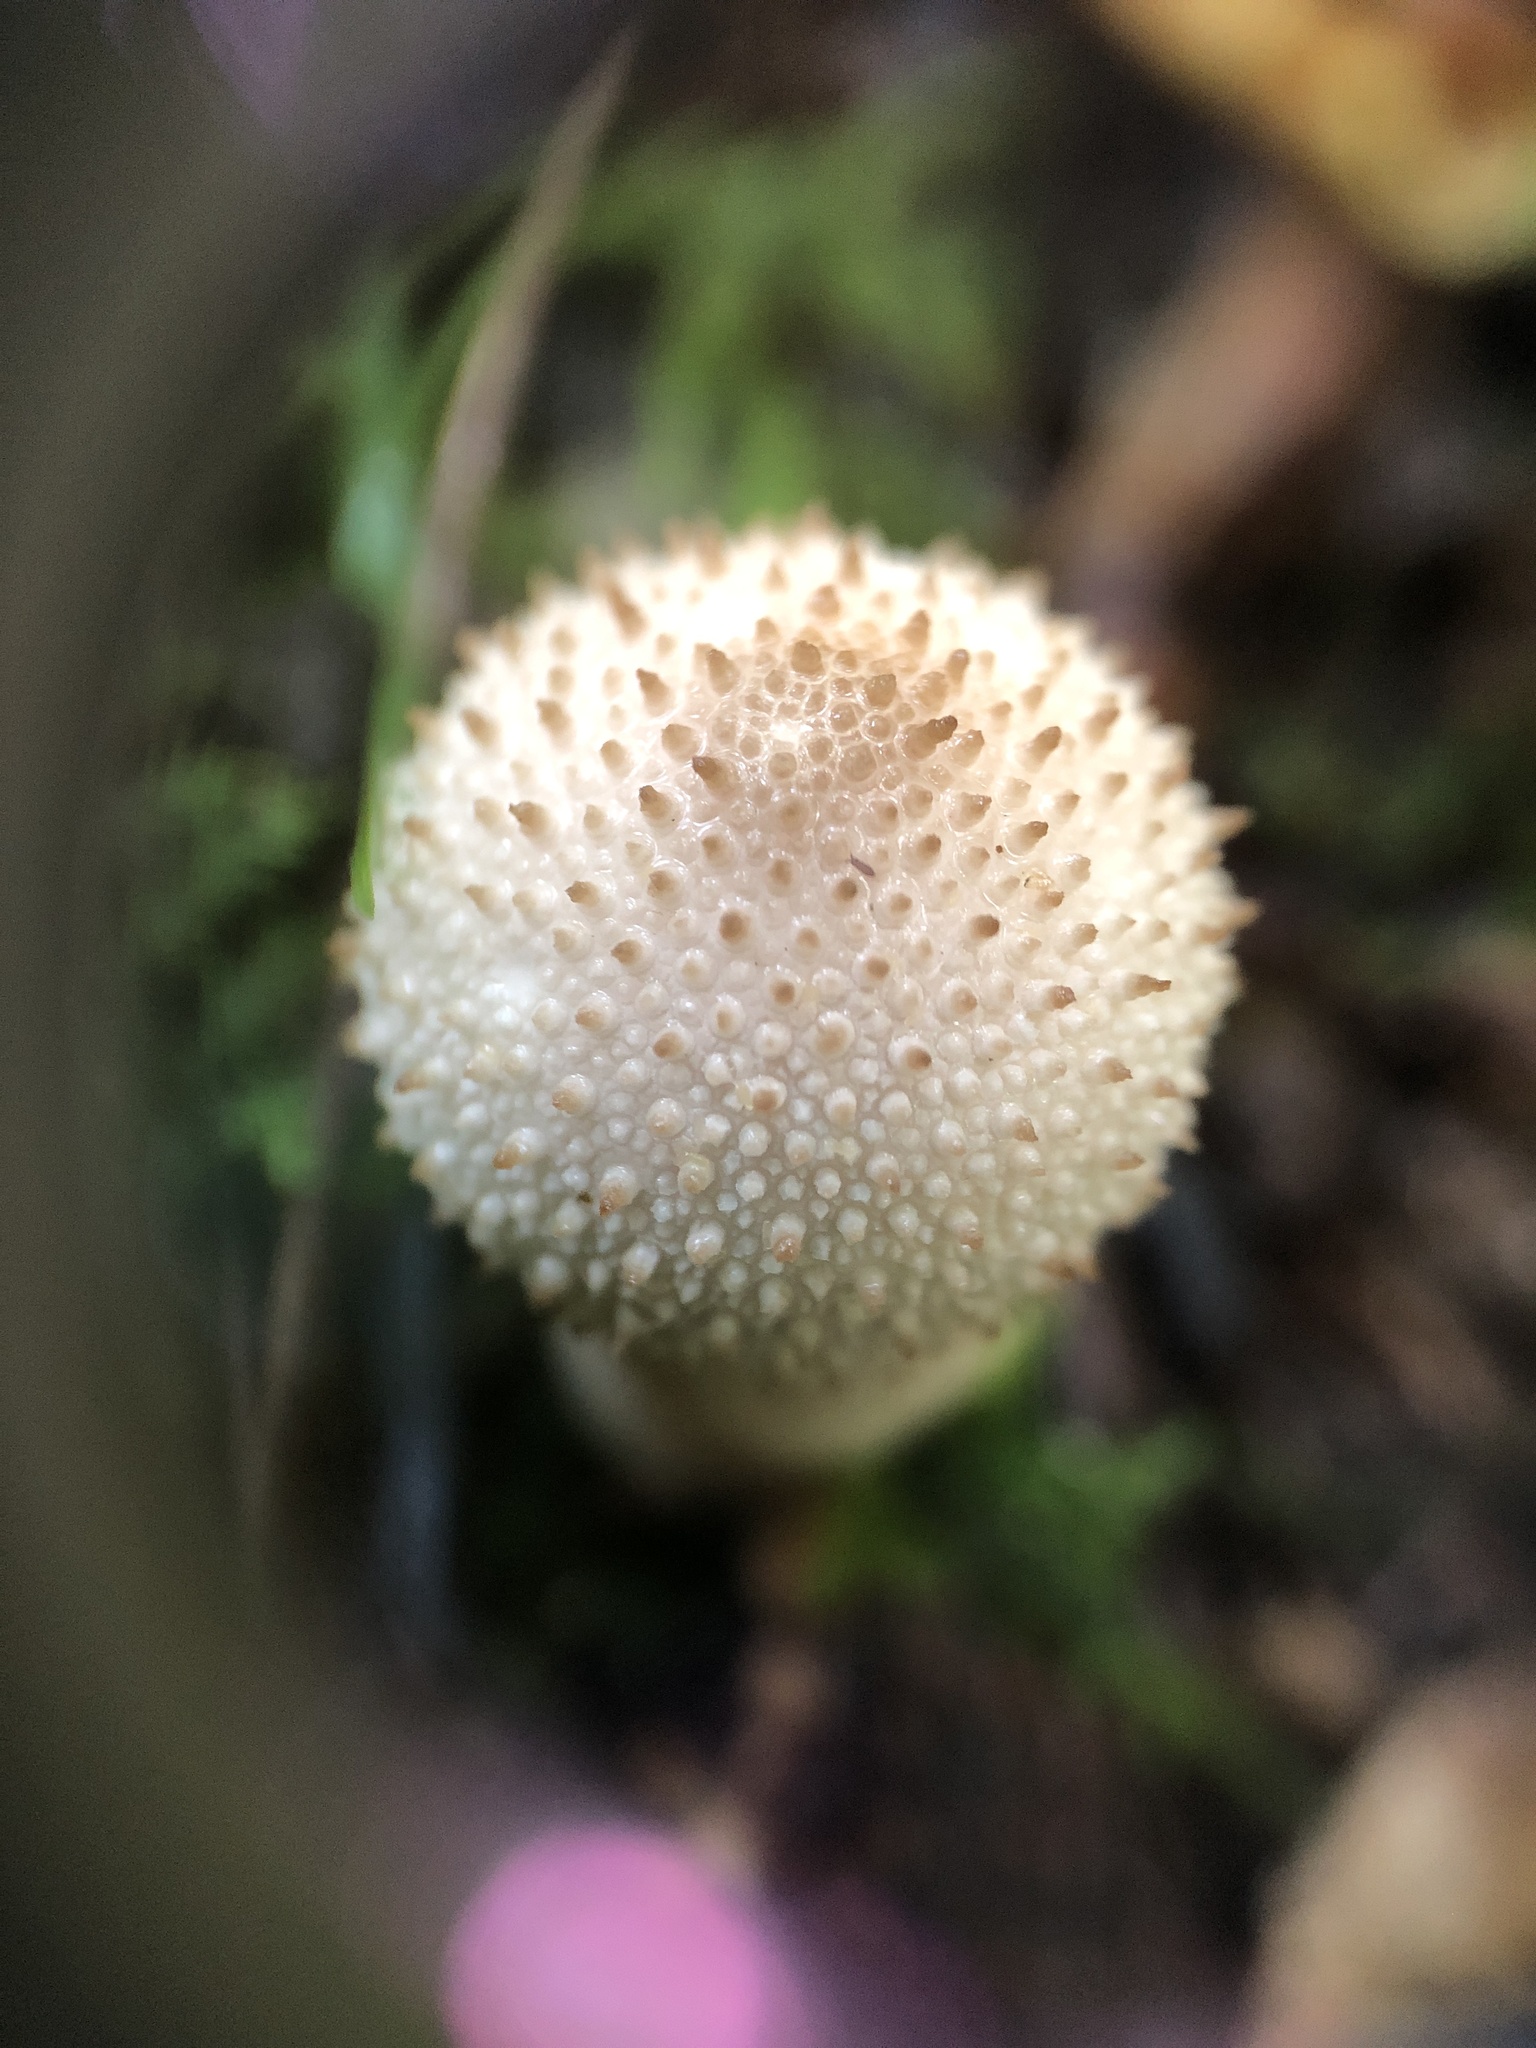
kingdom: Fungi
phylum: Basidiomycota
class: Agaricomycetes
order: Agaricales
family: Lycoperdaceae
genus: Lycoperdon
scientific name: Lycoperdon perlatum
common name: Common puffball
